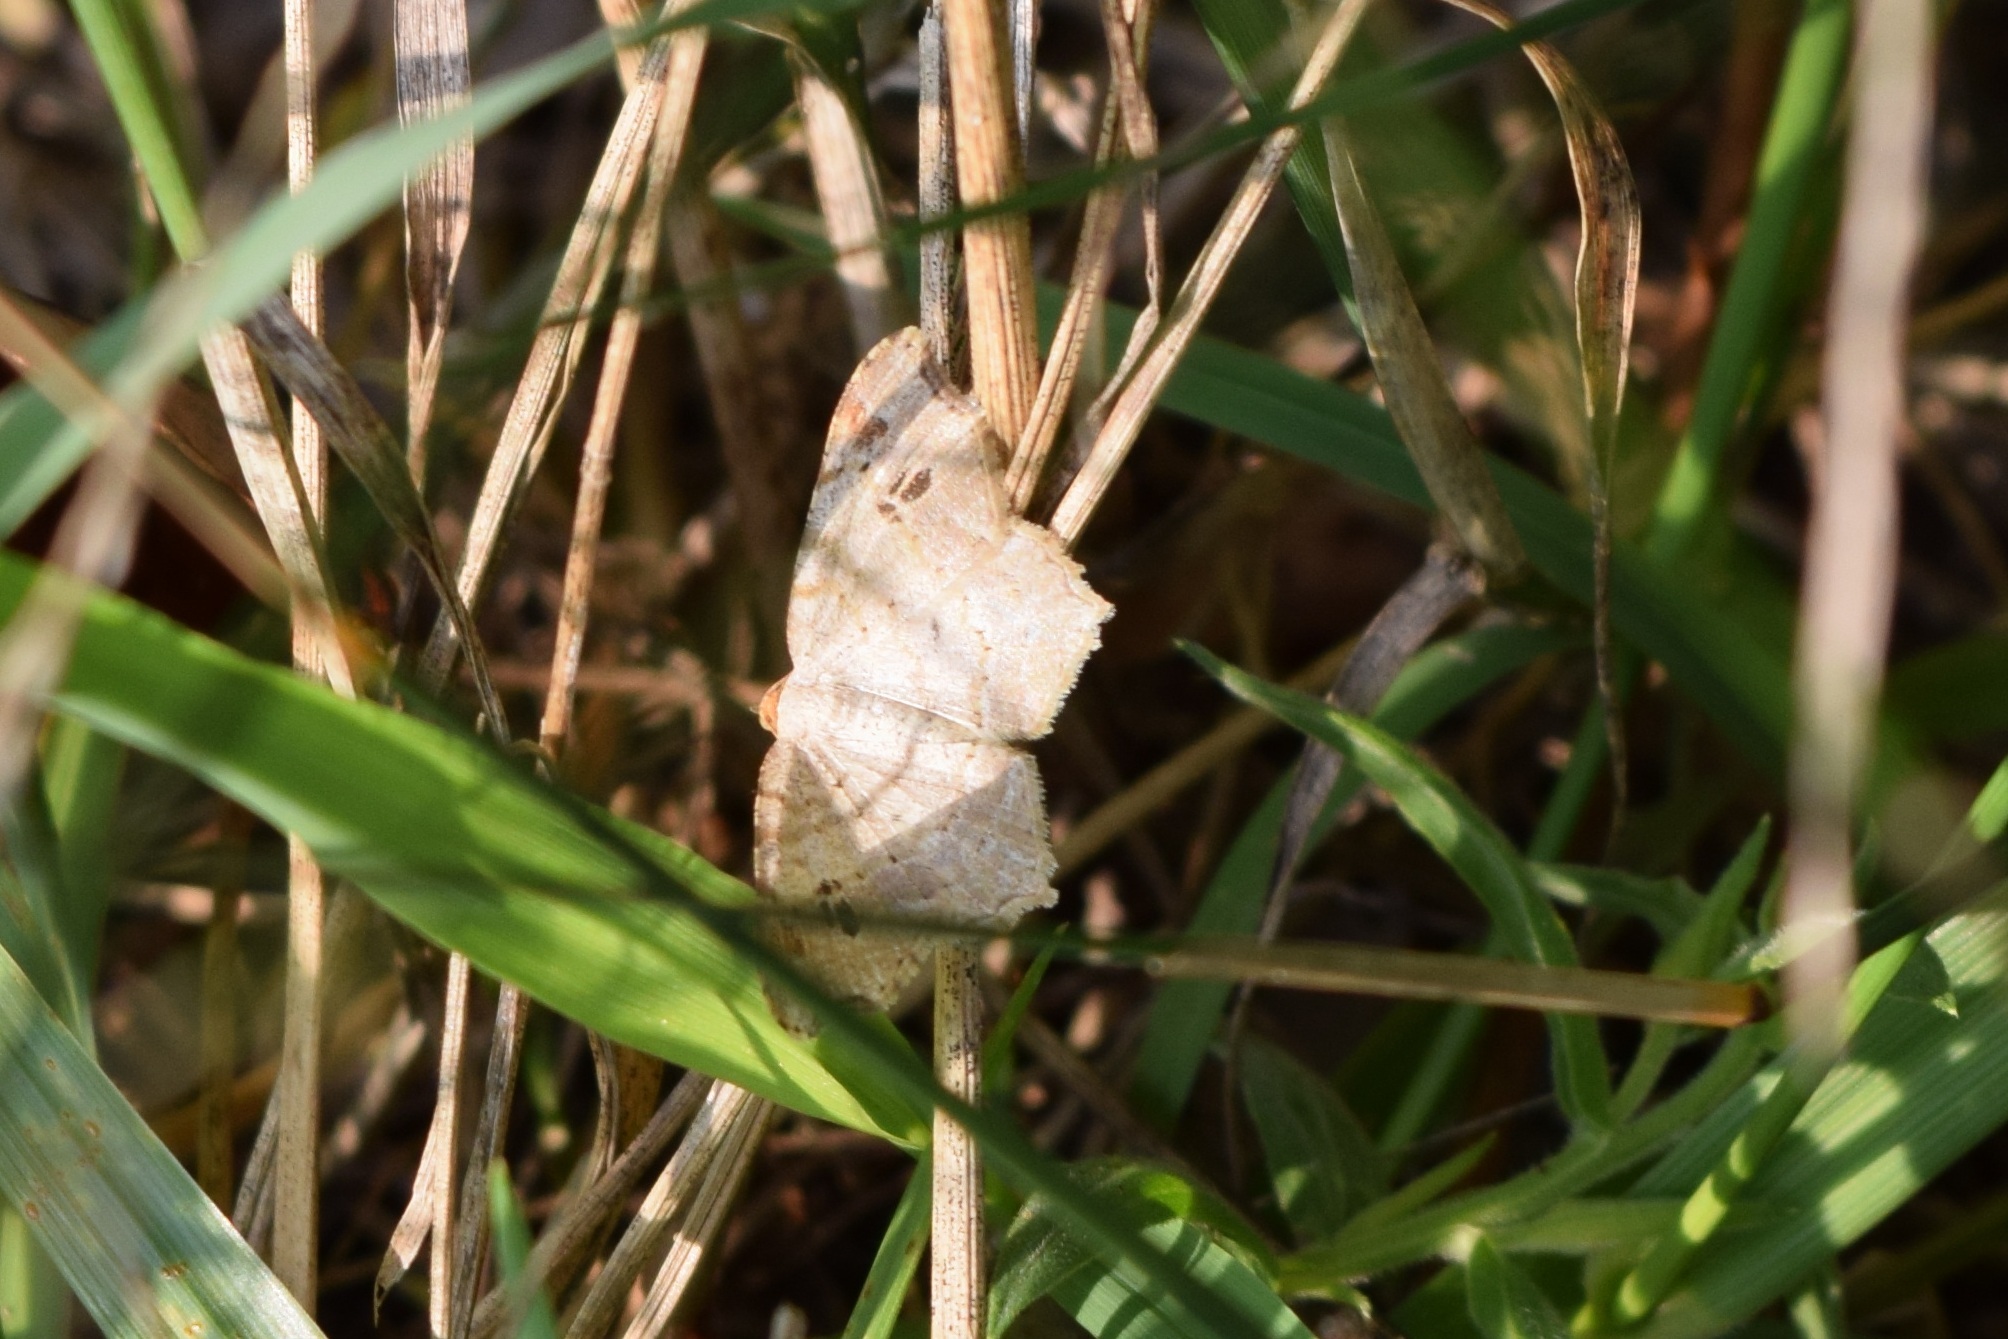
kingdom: Animalia
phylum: Arthropoda
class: Insecta
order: Lepidoptera
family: Geometridae
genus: Macaria
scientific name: Macaria aemulataria
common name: Common angle
